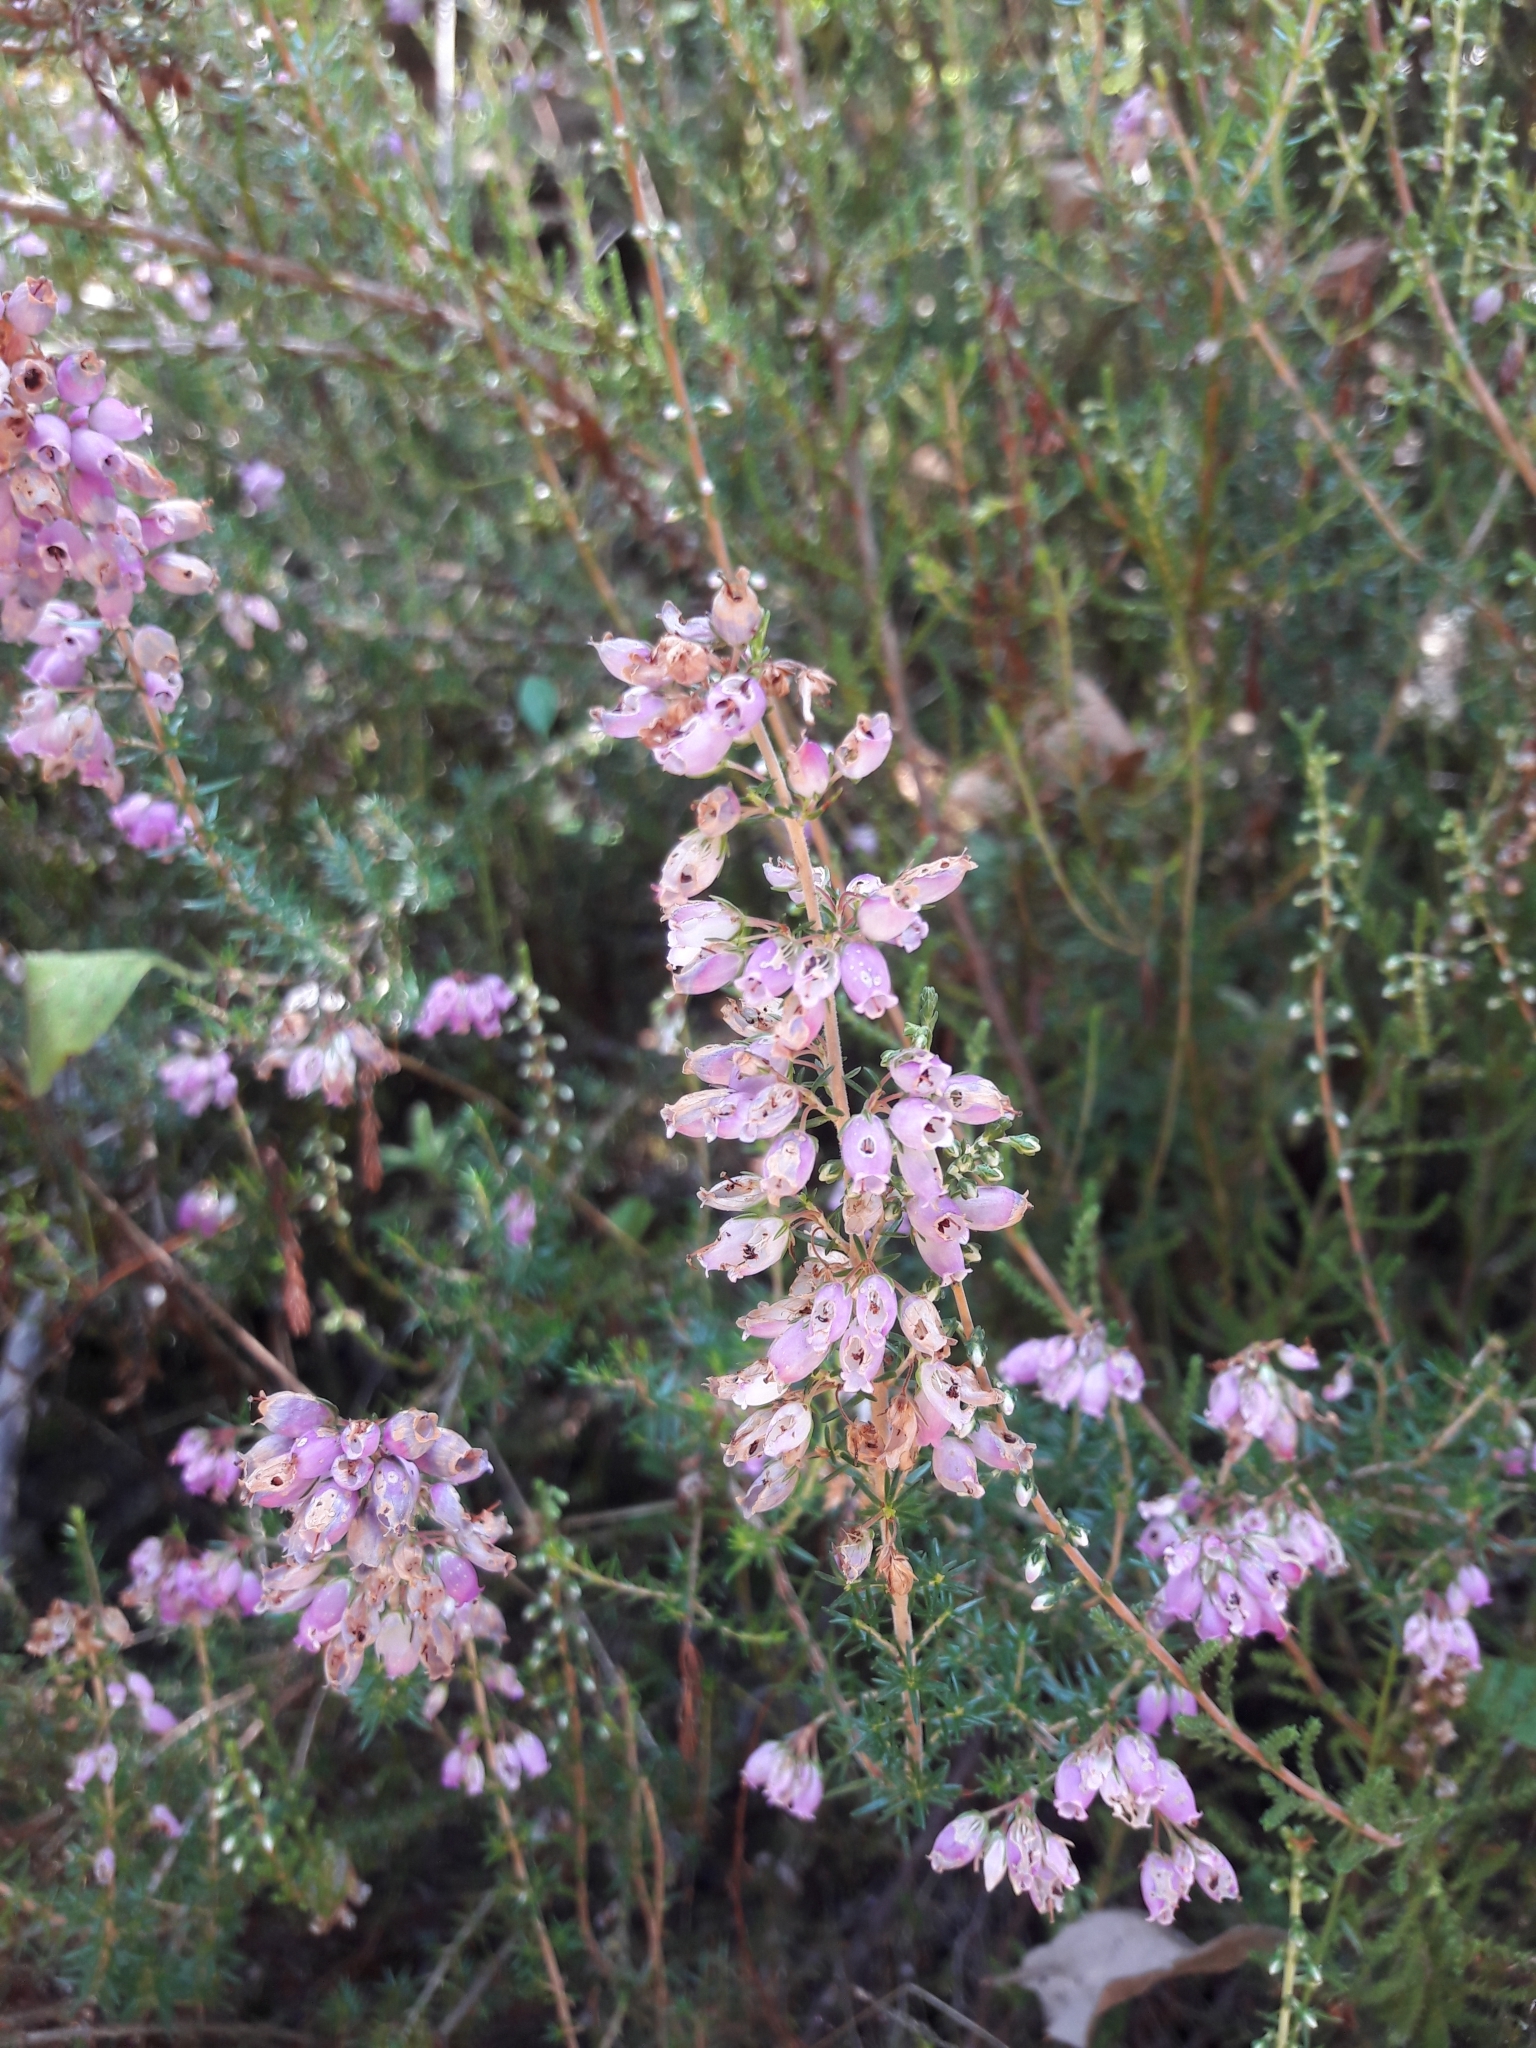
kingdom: Plantae
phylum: Tracheophyta
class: Magnoliopsida
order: Ericales
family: Ericaceae
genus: Erica
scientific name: Erica cinerea
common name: Bell heather
